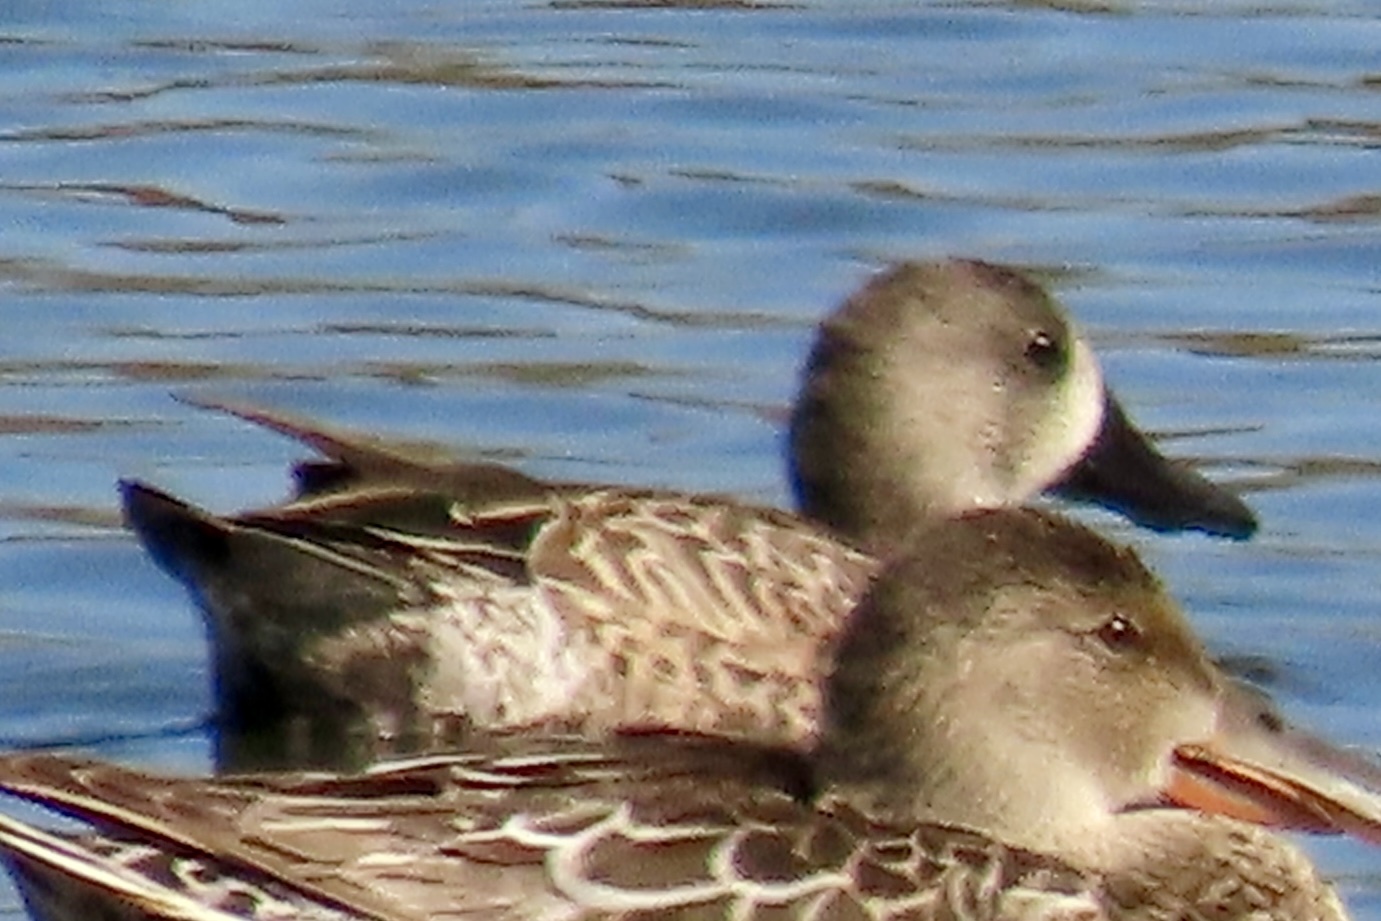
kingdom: Animalia
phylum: Chordata
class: Aves
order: Anseriformes
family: Anatidae
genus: Spatula
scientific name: Spatula discors
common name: Blue-winged teal
